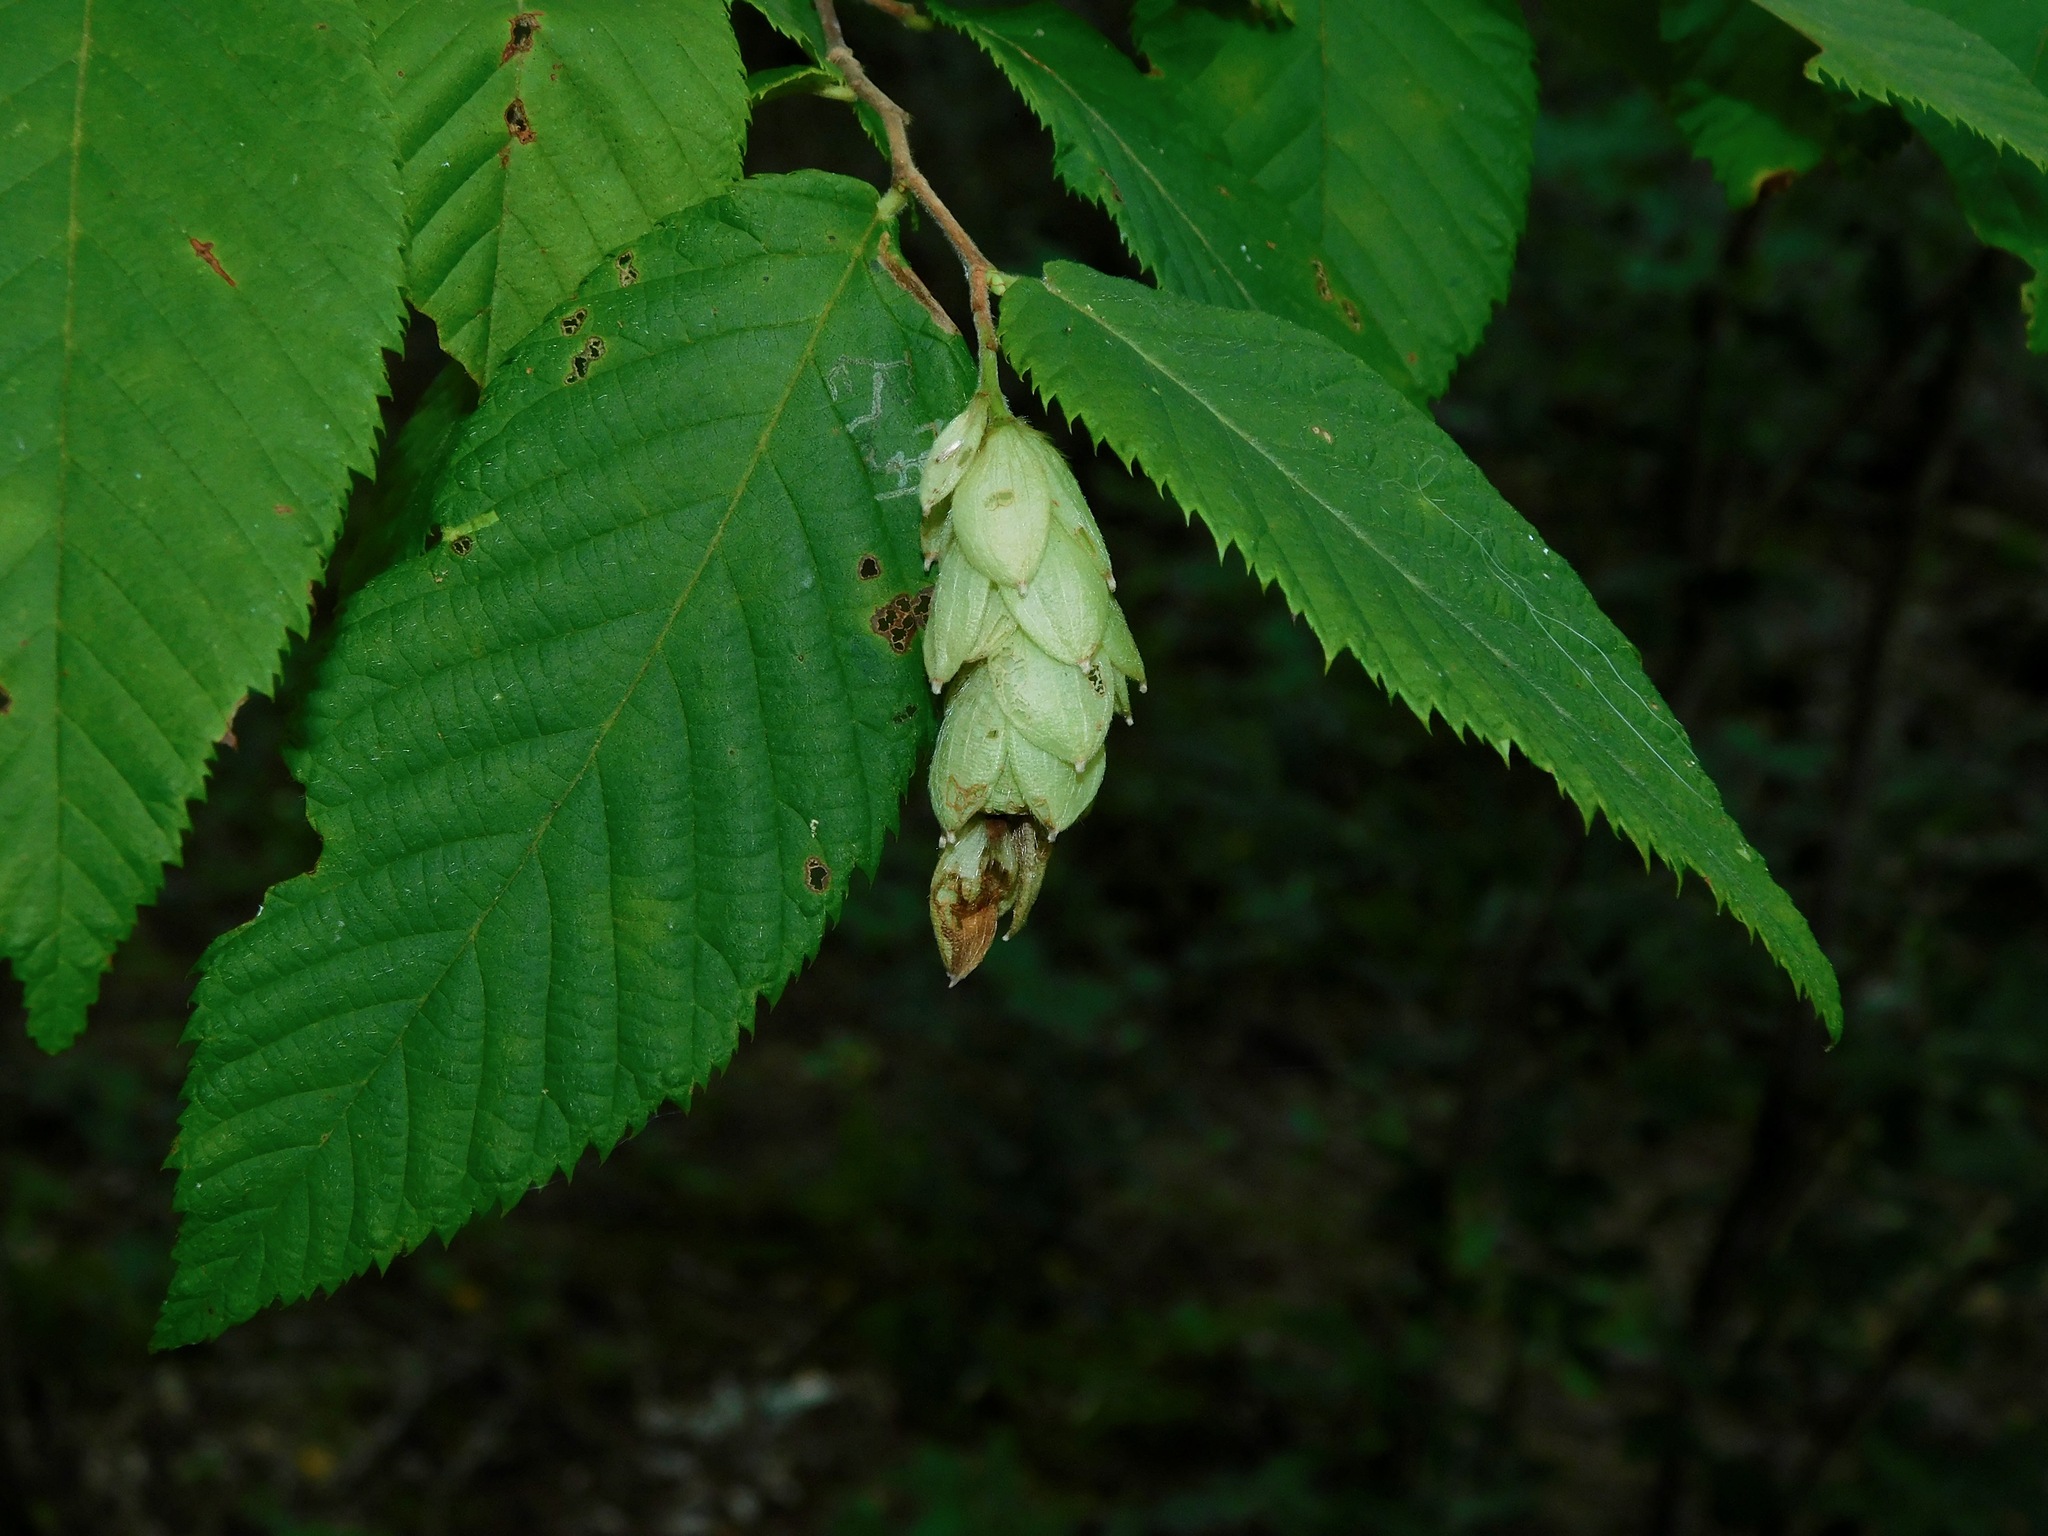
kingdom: Plantae
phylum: Tracheophyta
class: Magnoliopsida
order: Fagales
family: Betulaceae
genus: Ostrya
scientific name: Ostrya virginiana
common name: Ironwood
